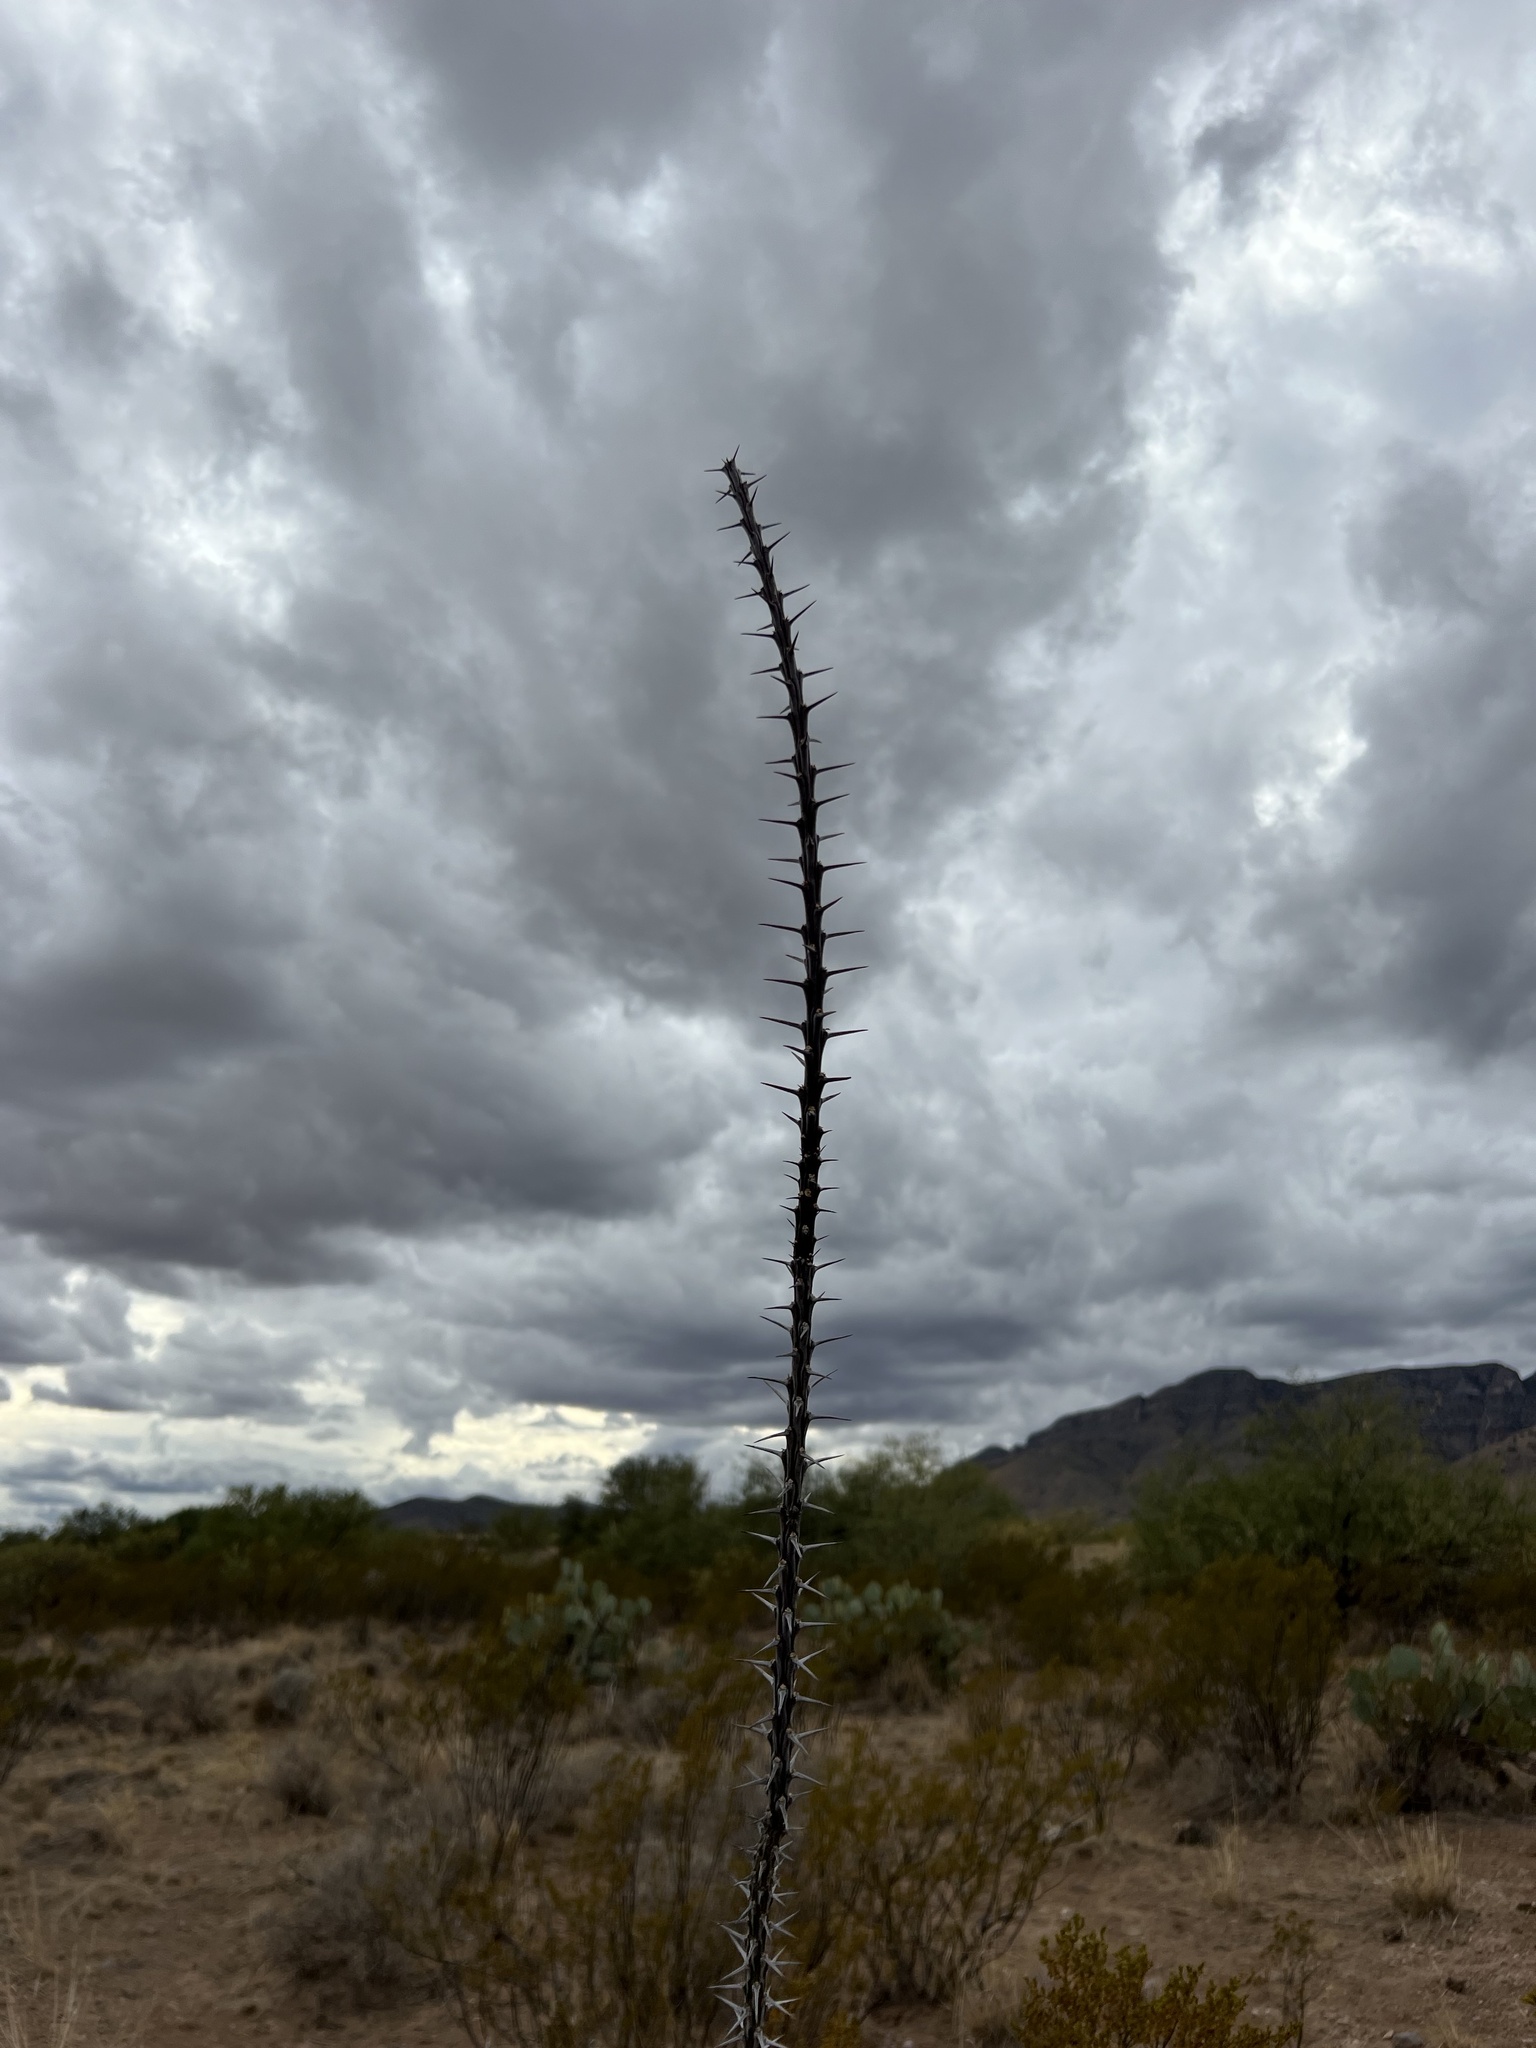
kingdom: Plantae
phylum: Tracheophyta
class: Magnoliopsida
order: Ericales
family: Fouquieriaceae
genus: Fouquieria
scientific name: Fouquieria splendens
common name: Vine-cactus
